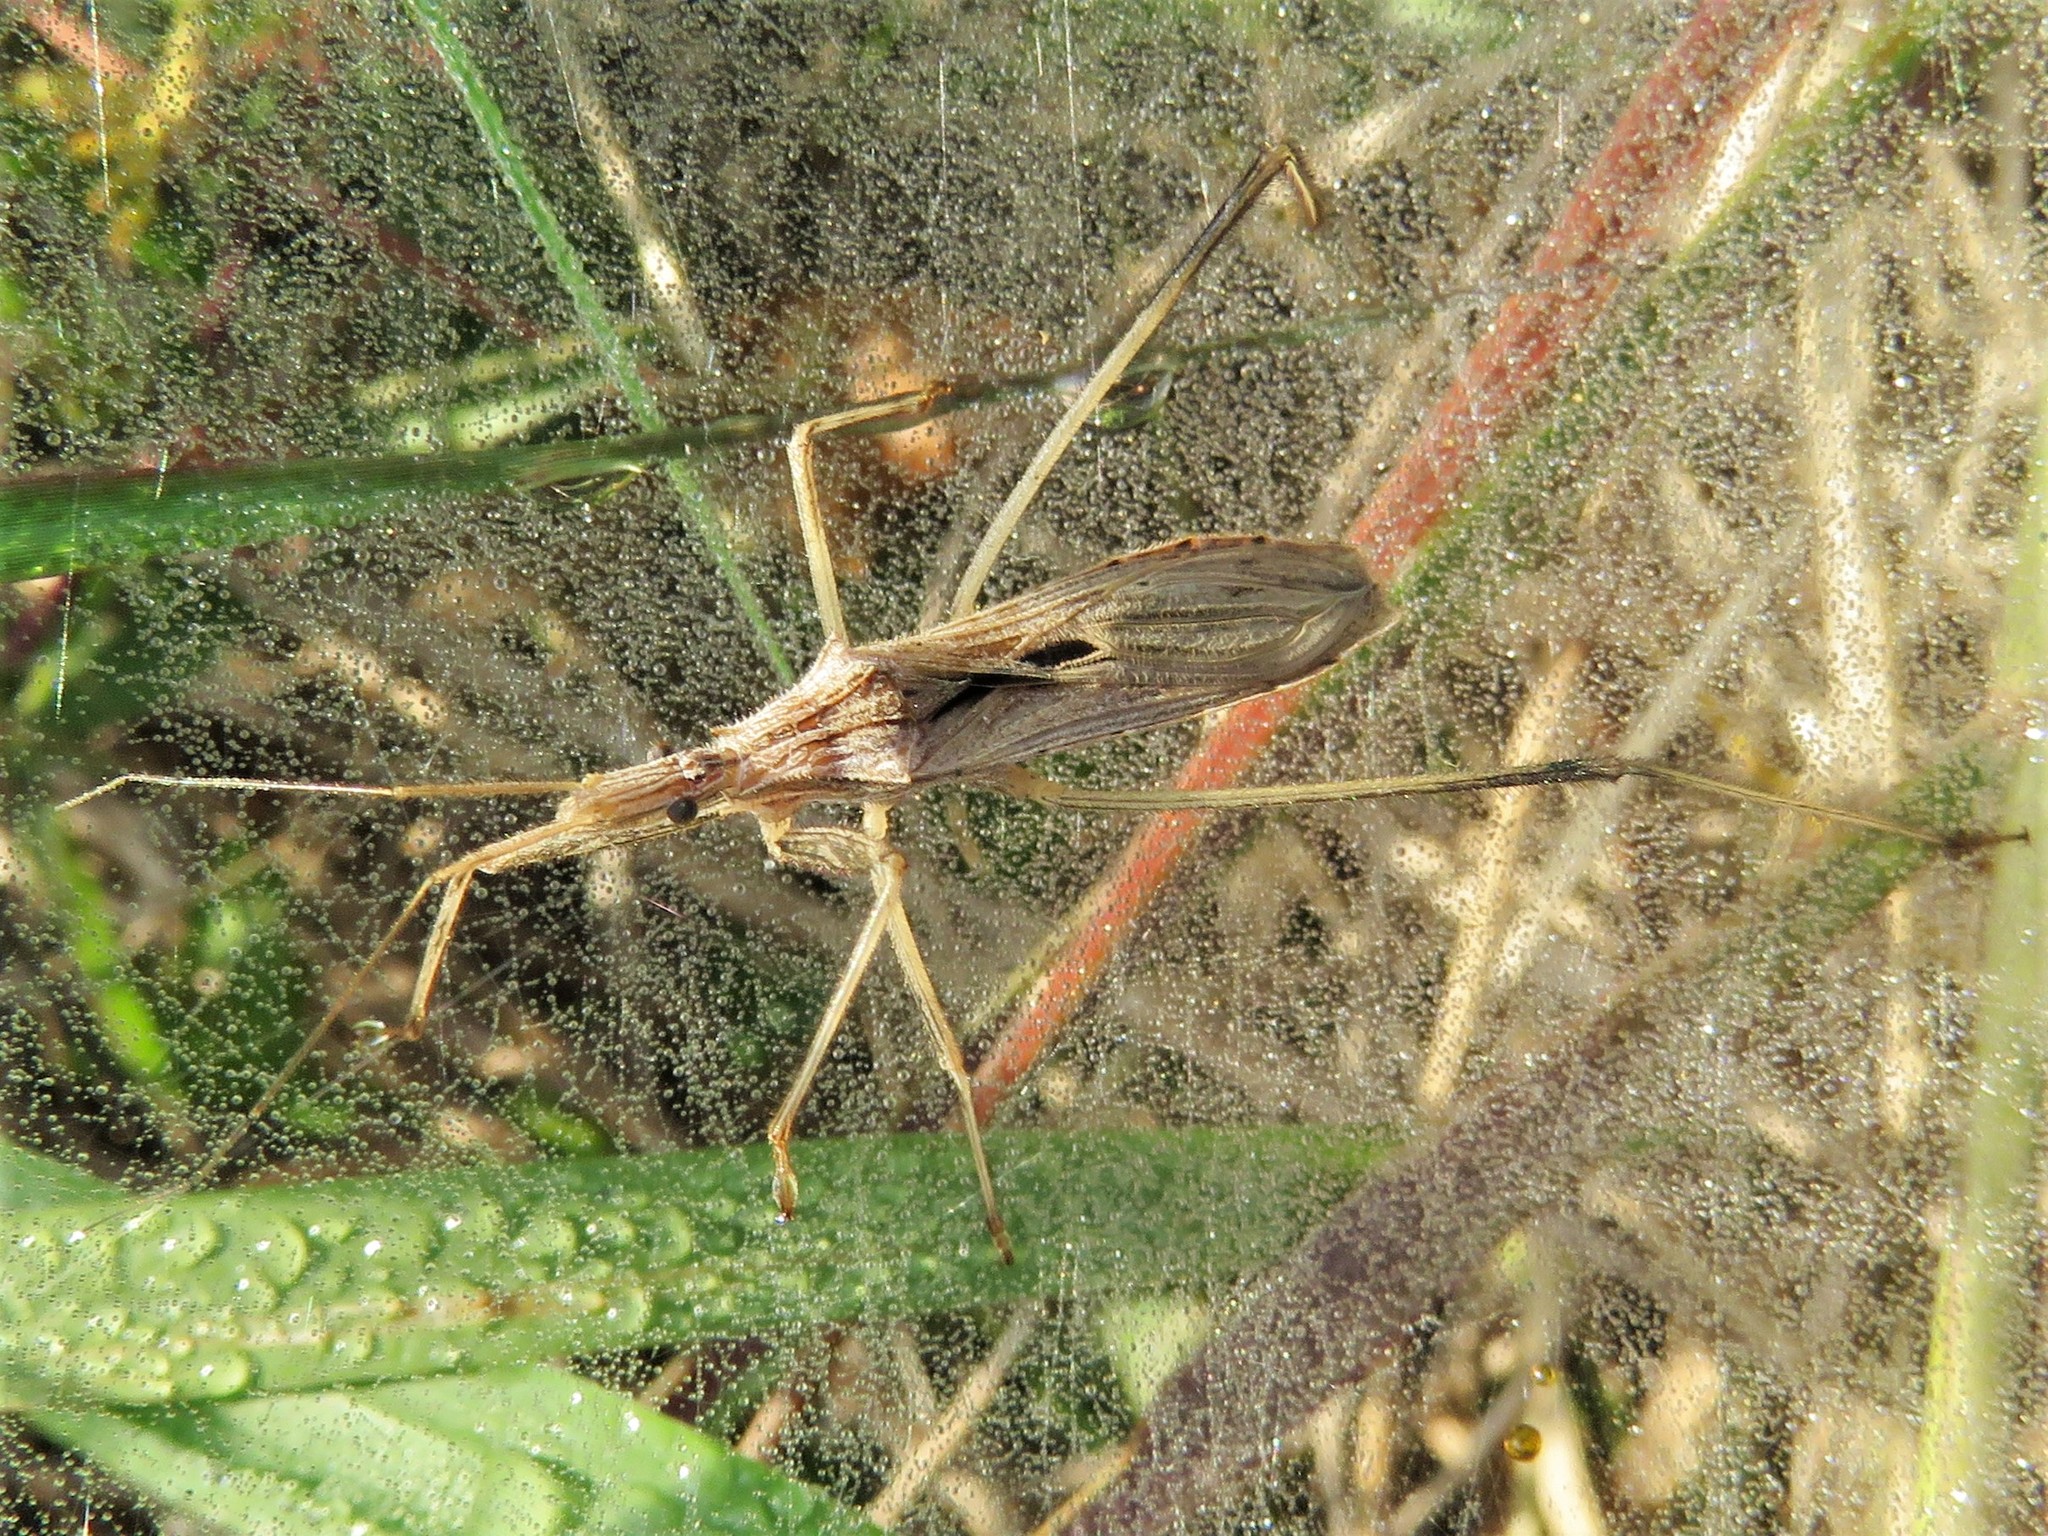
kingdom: Animalia
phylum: Arthropoda
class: Insecta
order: Hemiptera
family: Reduviidae
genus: Stenopoda
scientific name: Stenopoda spinulosa
